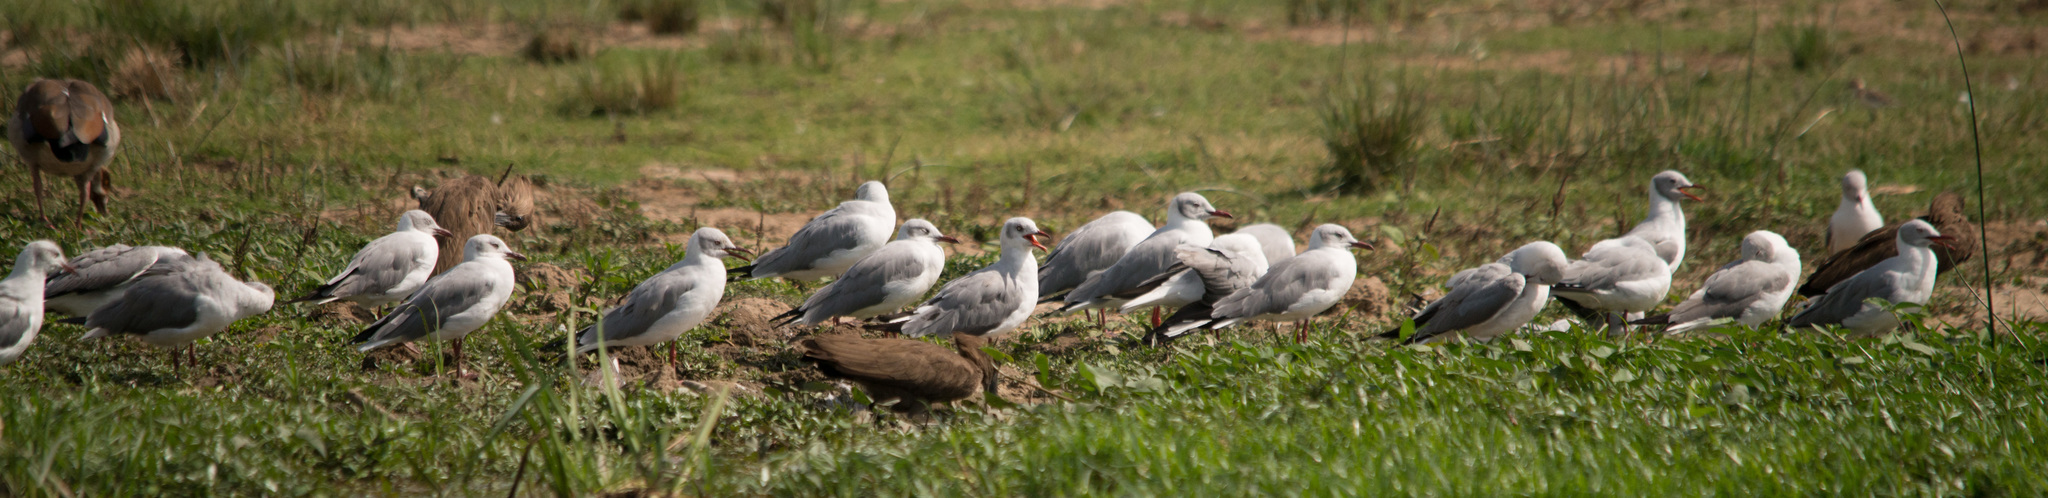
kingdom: Animalia
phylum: Chordata
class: Aves
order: Charadriiformes
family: Laridae
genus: Chroicocephalus
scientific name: Chroicocephalus cirrocephalus
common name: Grey-headed gull
